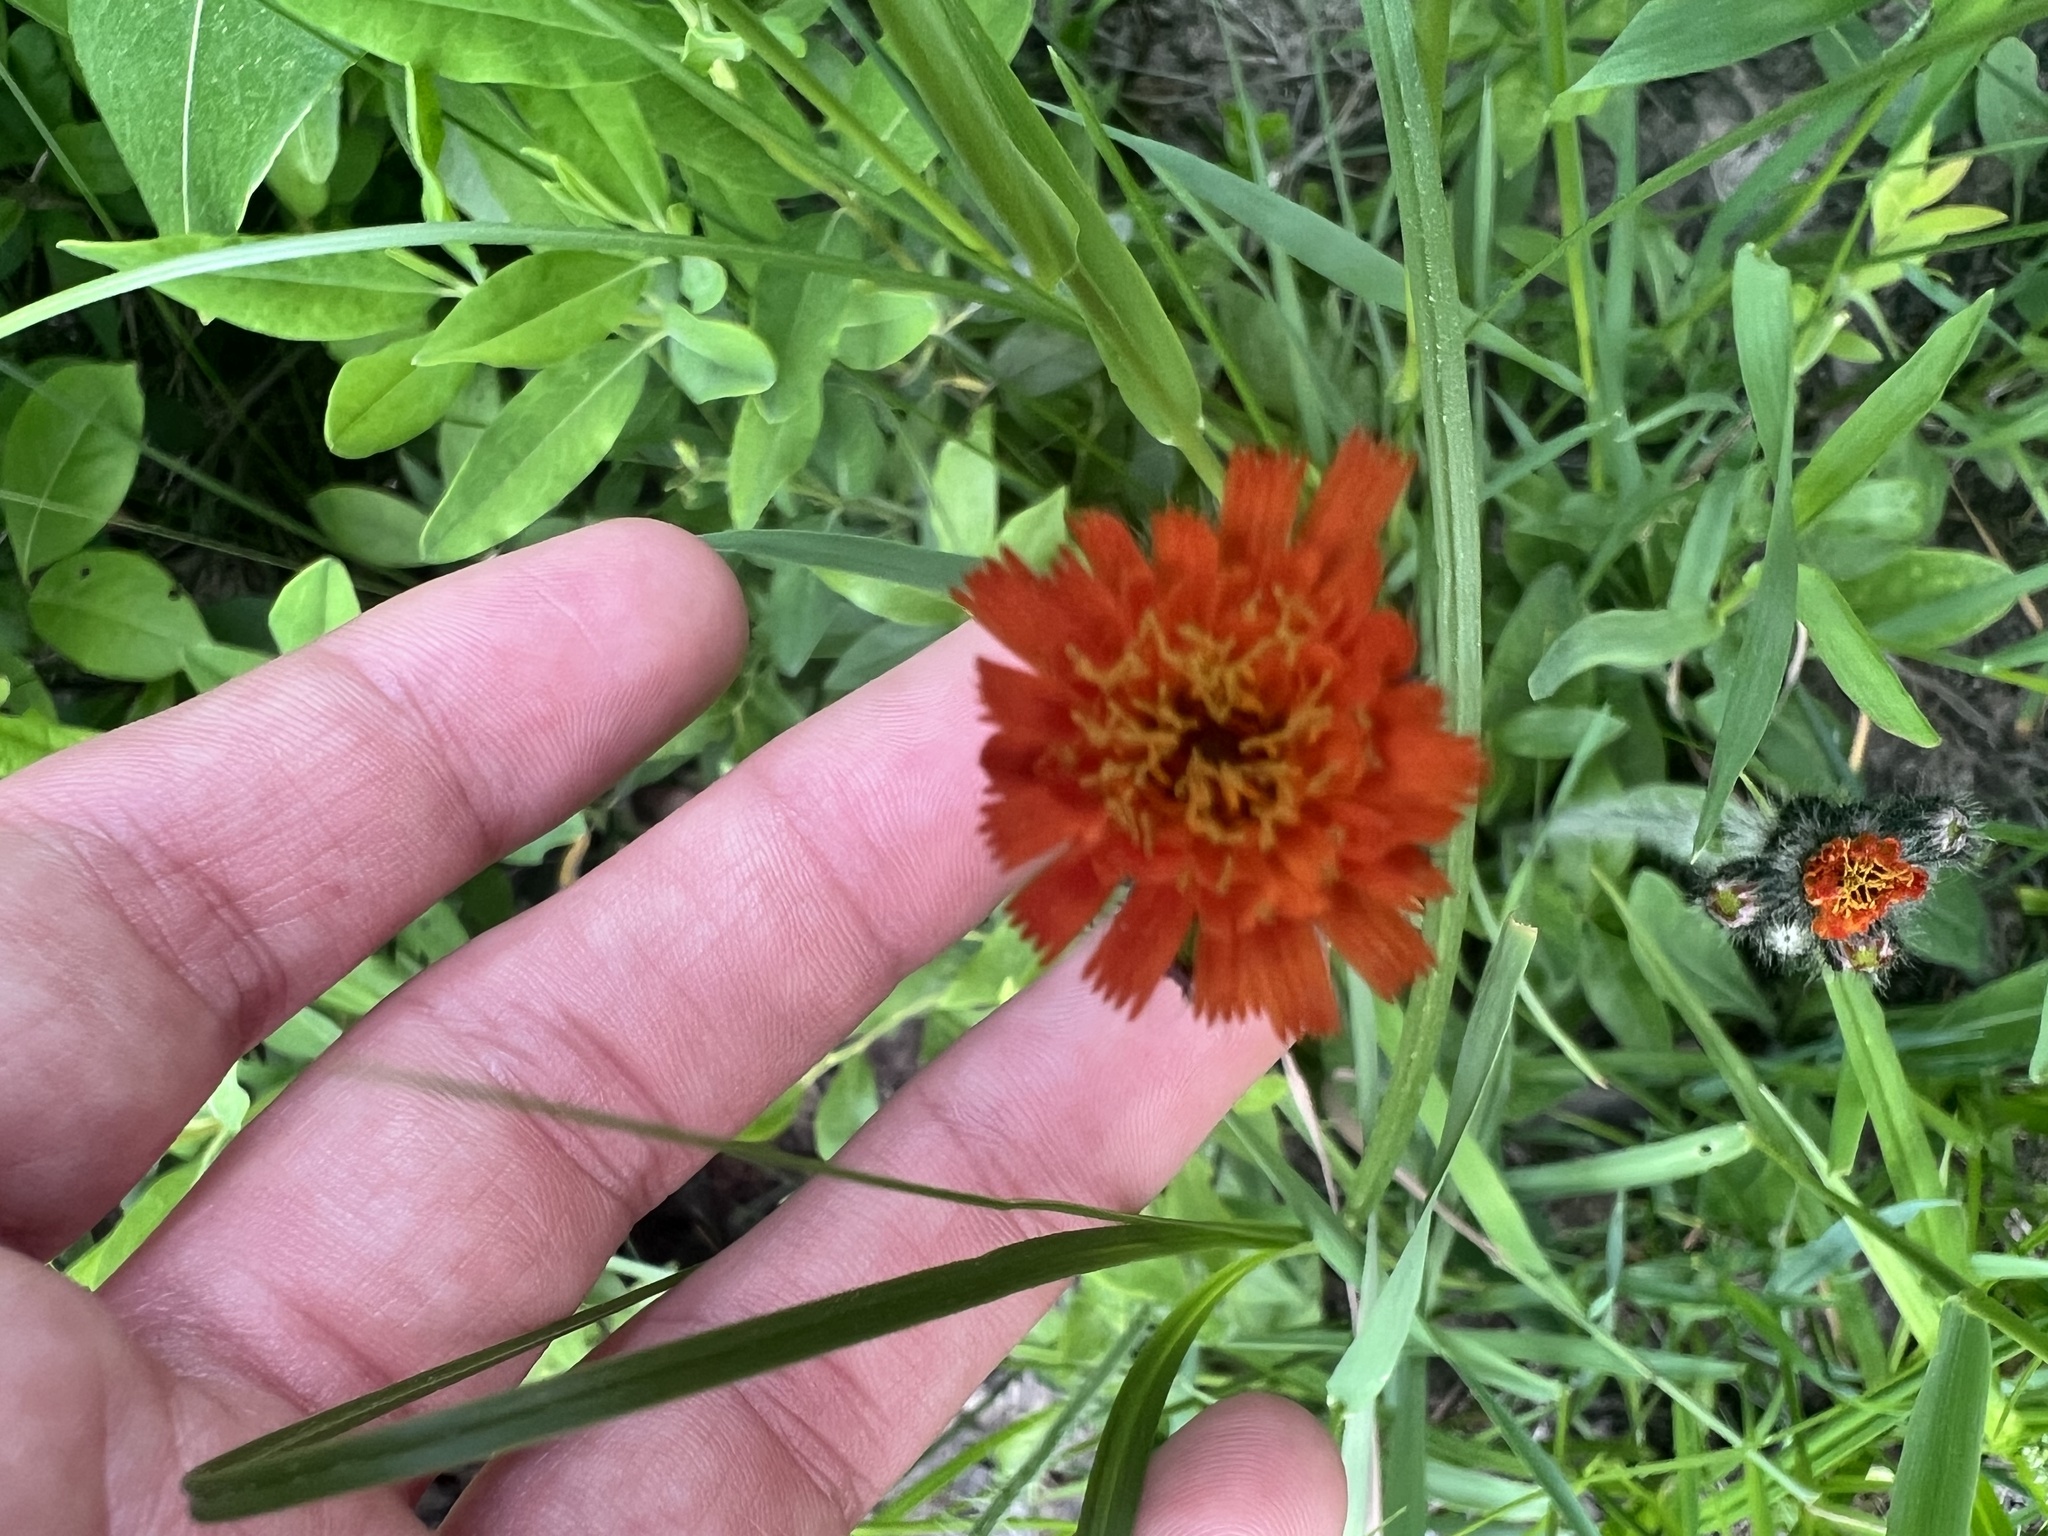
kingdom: Plantae
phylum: Tracheophyta
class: Magnoliopsida
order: Asterales
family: Asteraceae
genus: Pilosella
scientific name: Pilosella aurantiaca
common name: Fox-and-cubs
